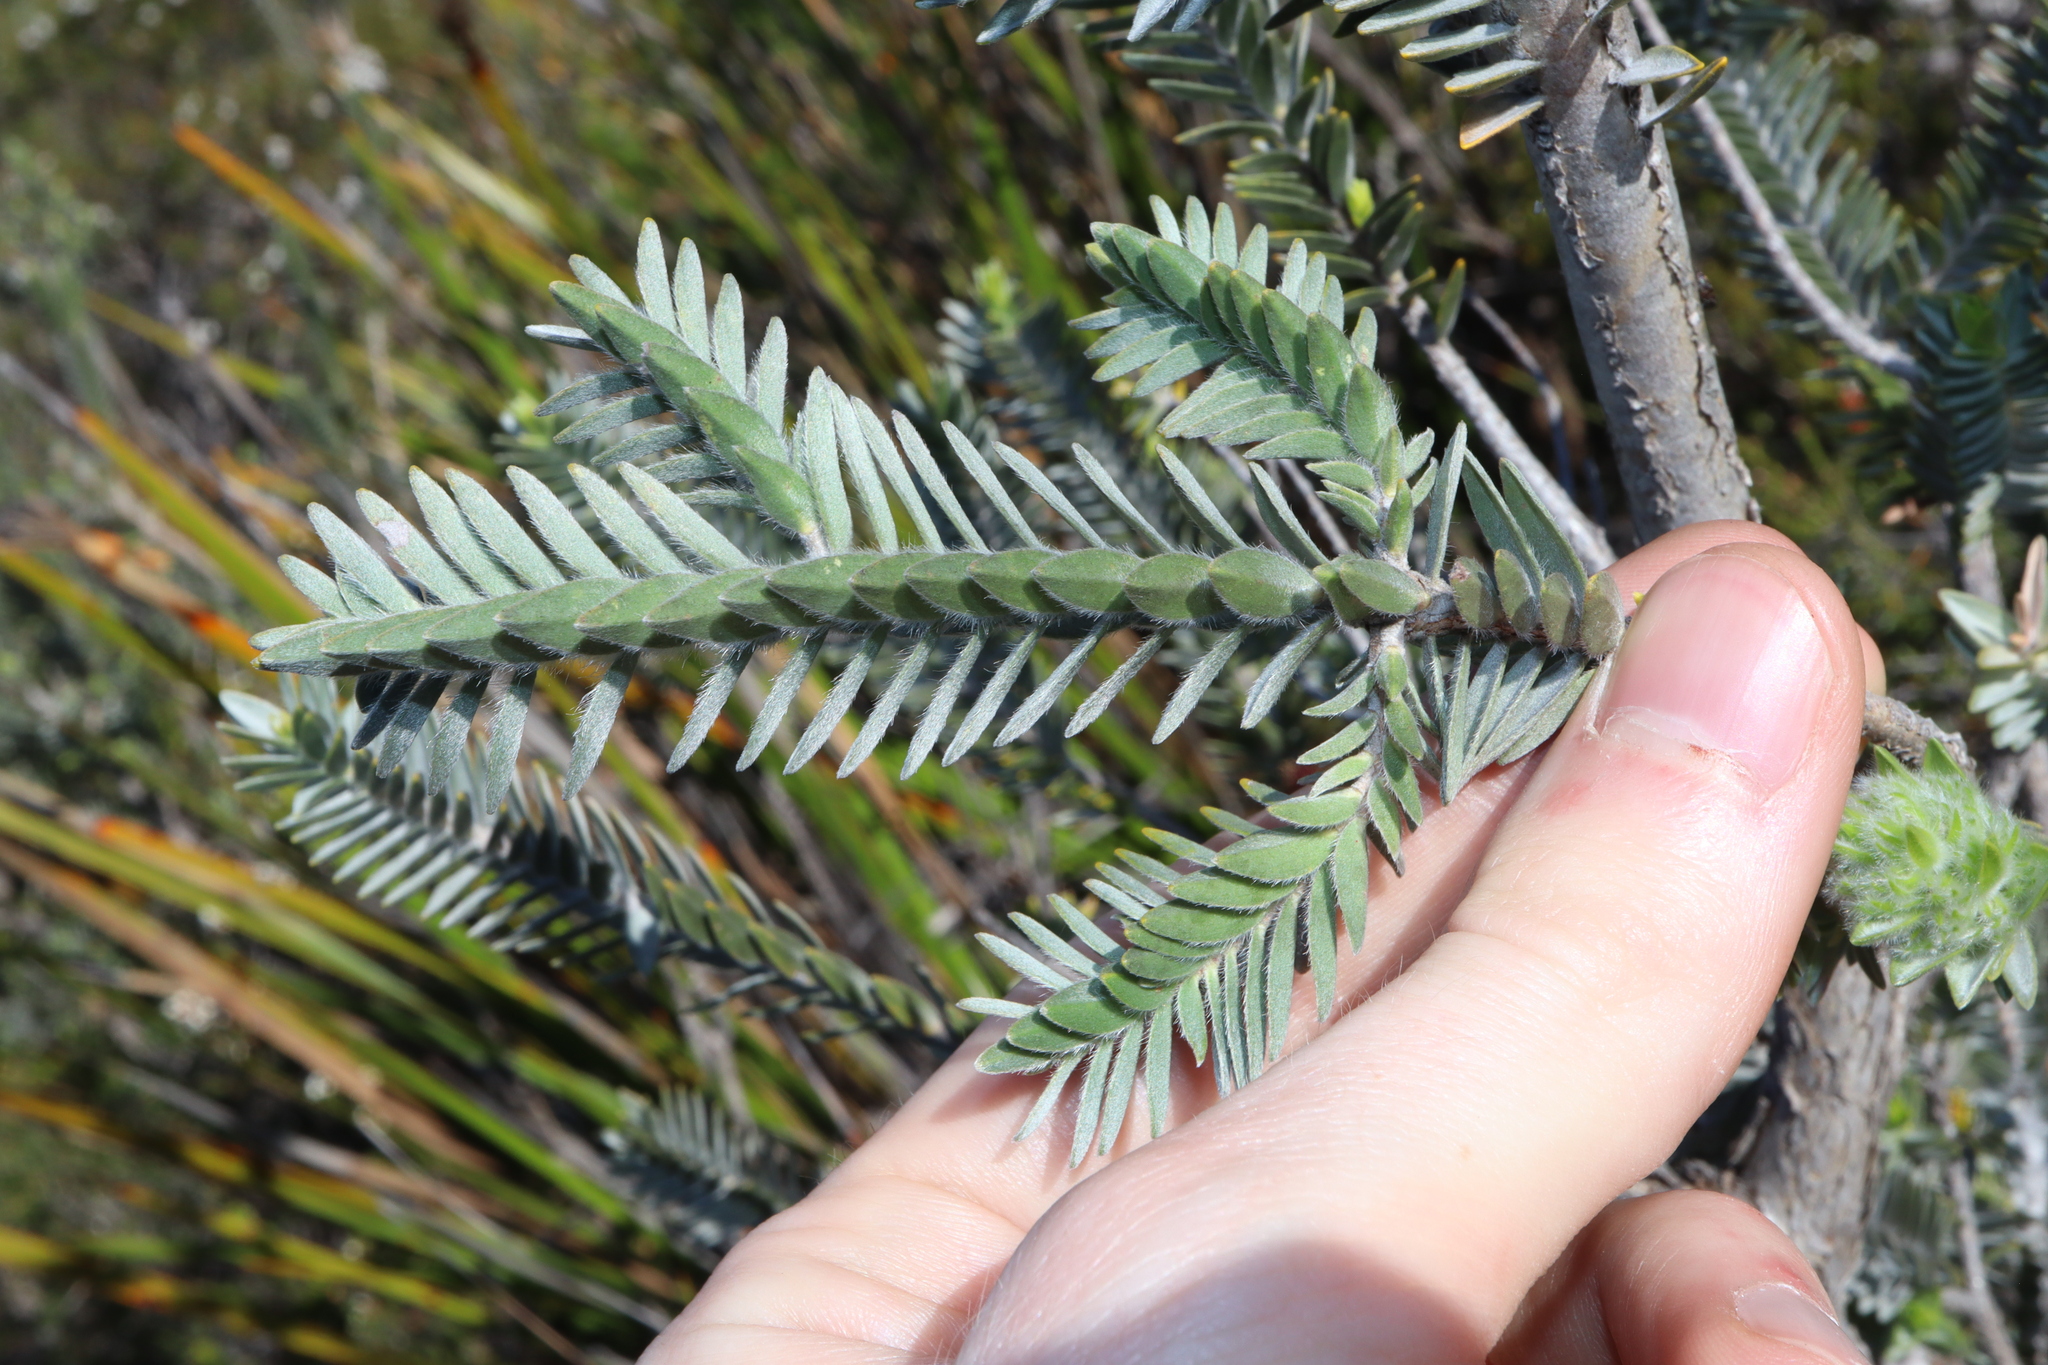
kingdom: Plantae
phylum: Tracheophyta
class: Magnoliopsida
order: Myrtales
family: Myrtaceae
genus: Melaleuca
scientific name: Melaleuca velutina
